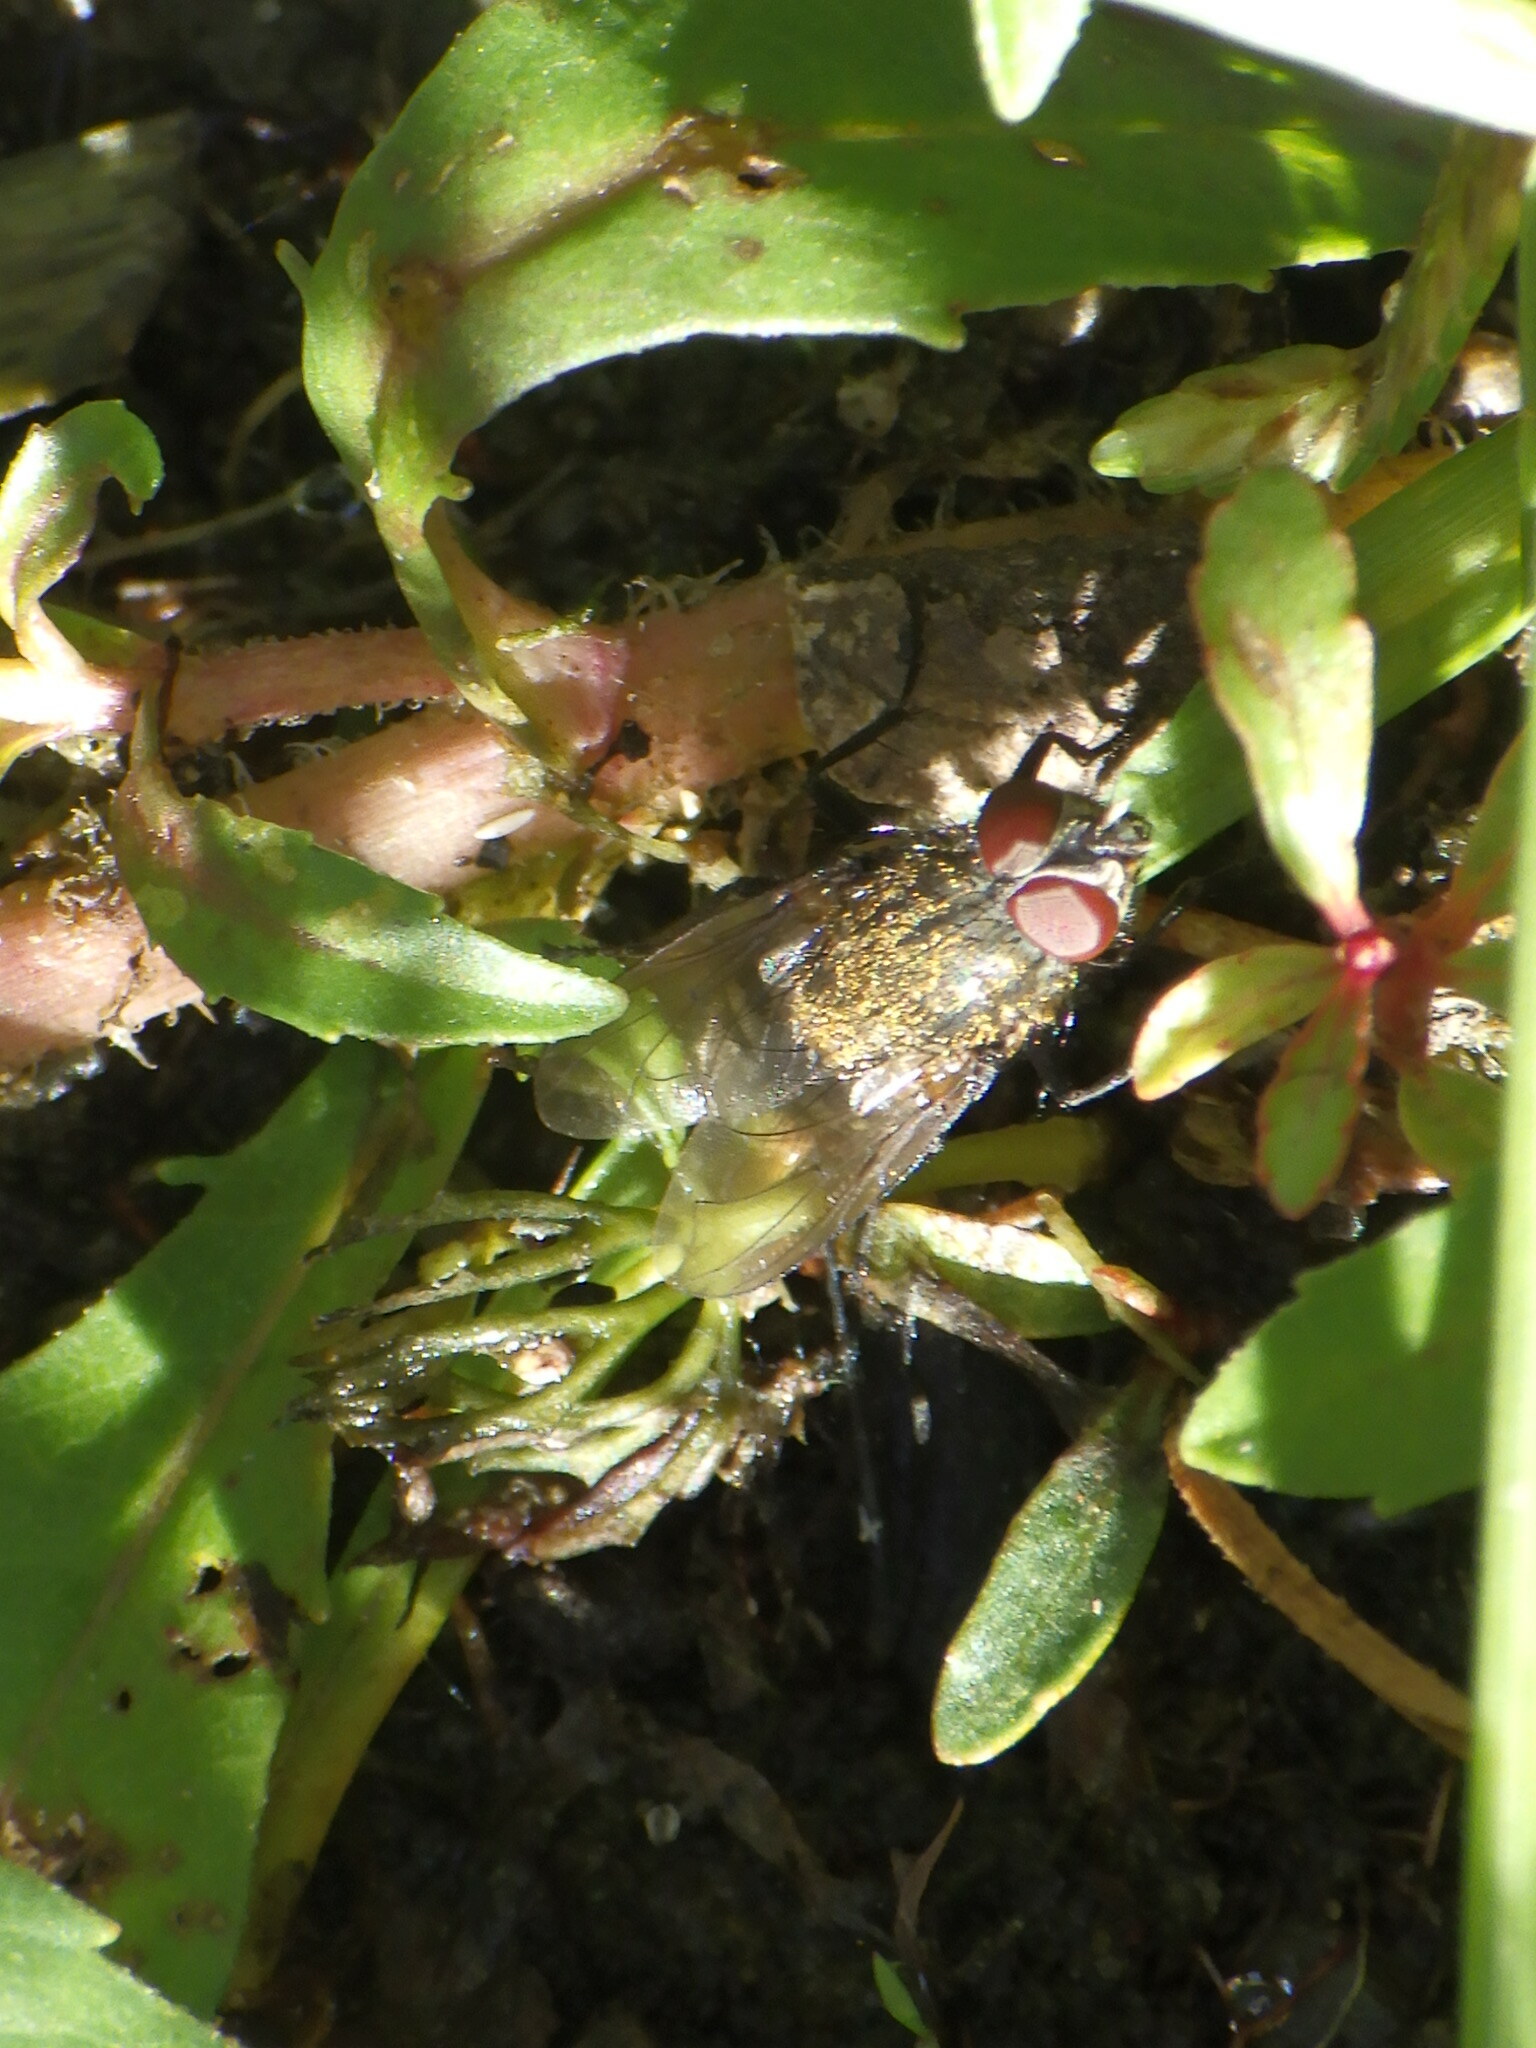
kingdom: Animalia
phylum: Arthropoda
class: Insecta
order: Diptera
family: Polleniidae
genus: Pollenia
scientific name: Pollenia
